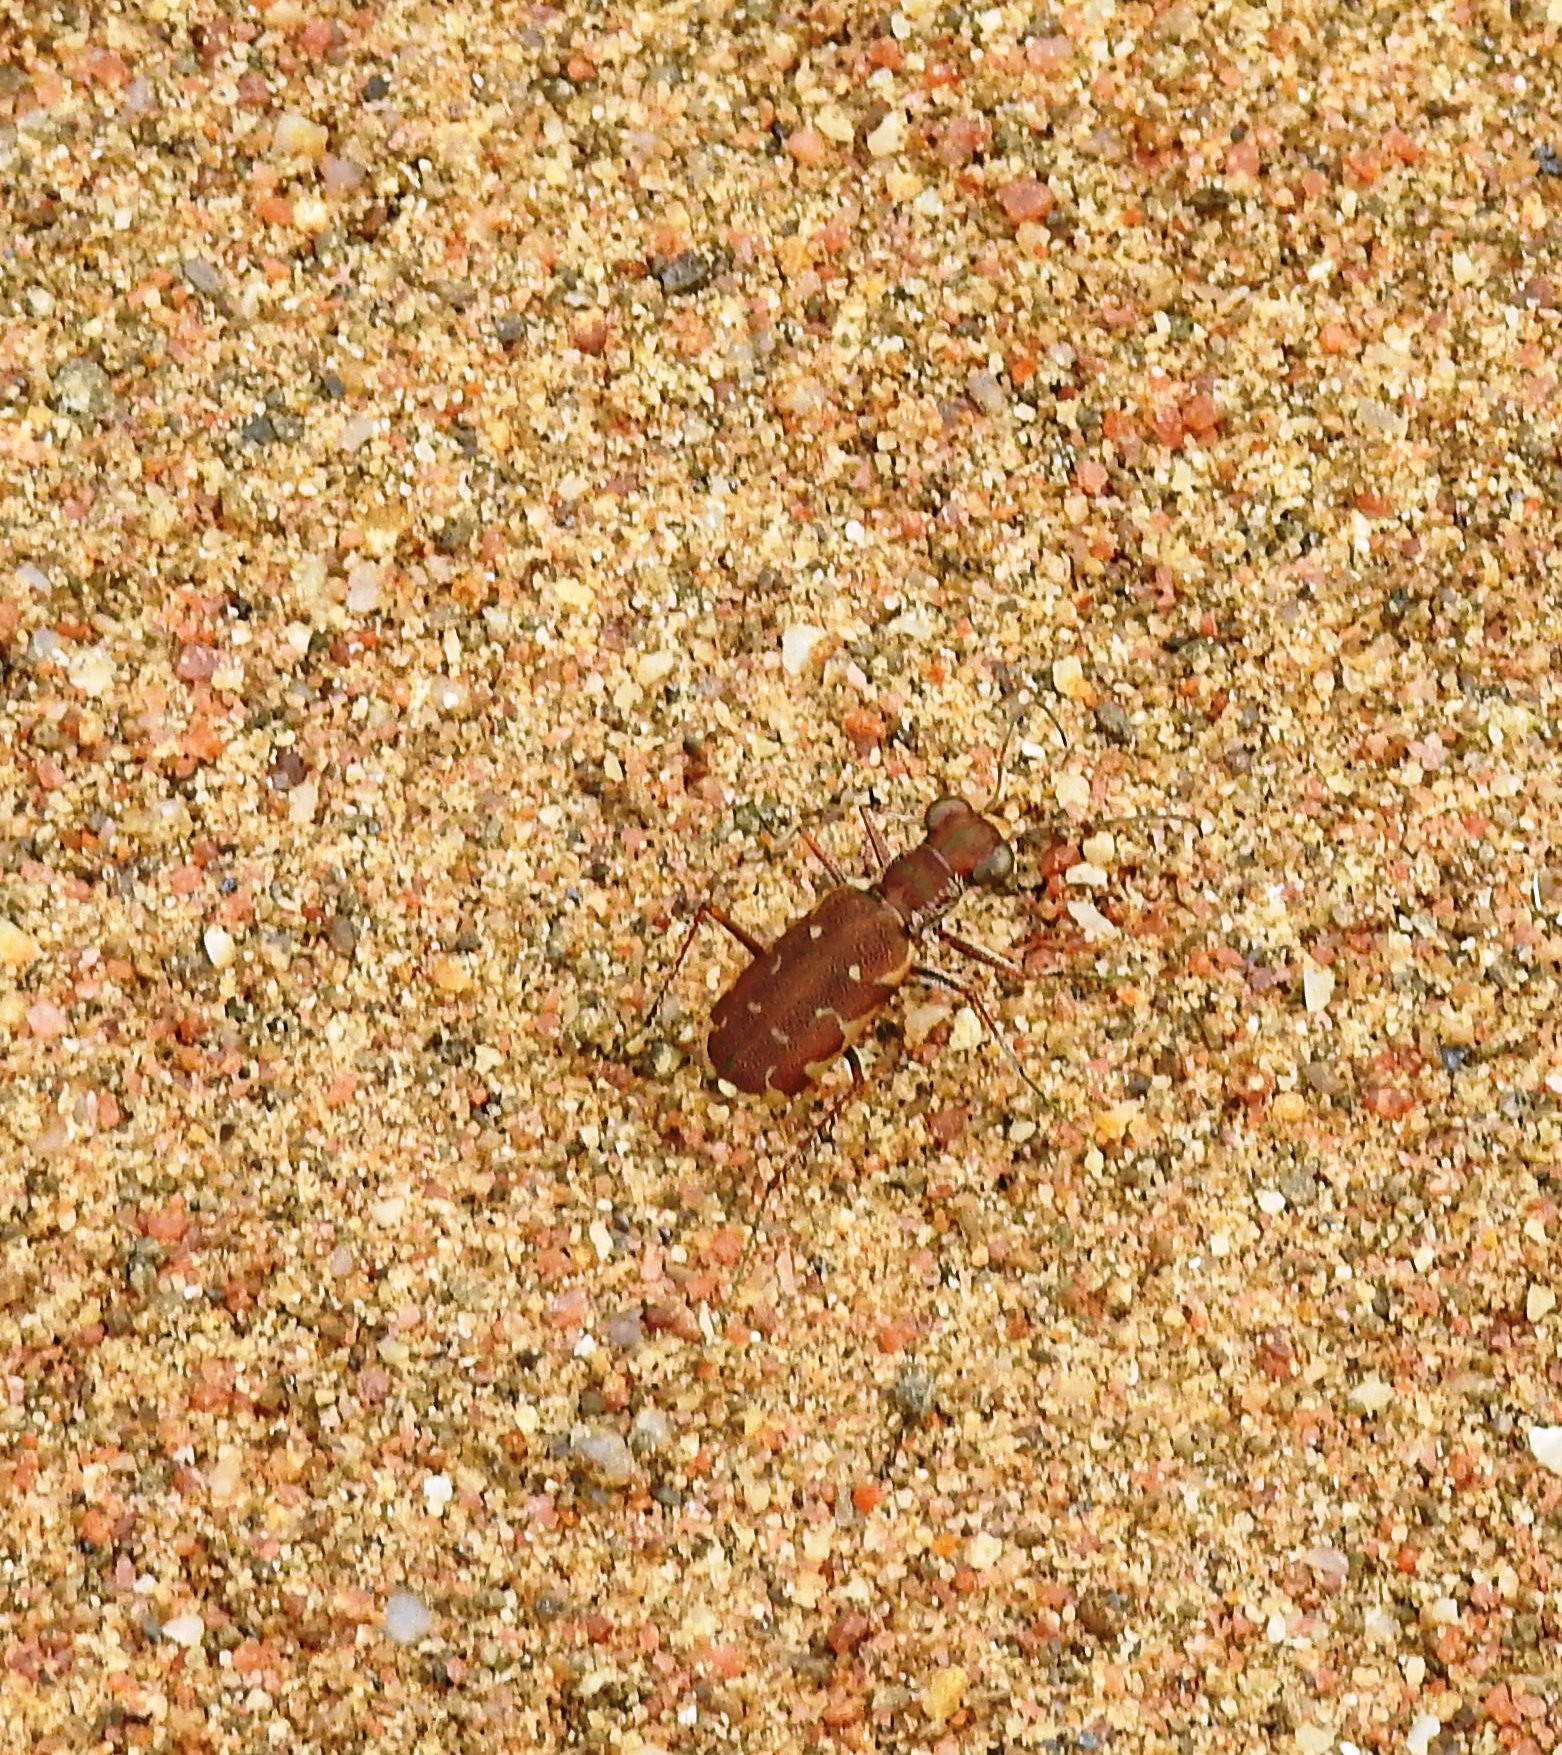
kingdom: Animalia
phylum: Arthropoda
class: Insecta
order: Coleoptera
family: Carabidae
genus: Myriochila
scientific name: Myriochila fastidiosa
